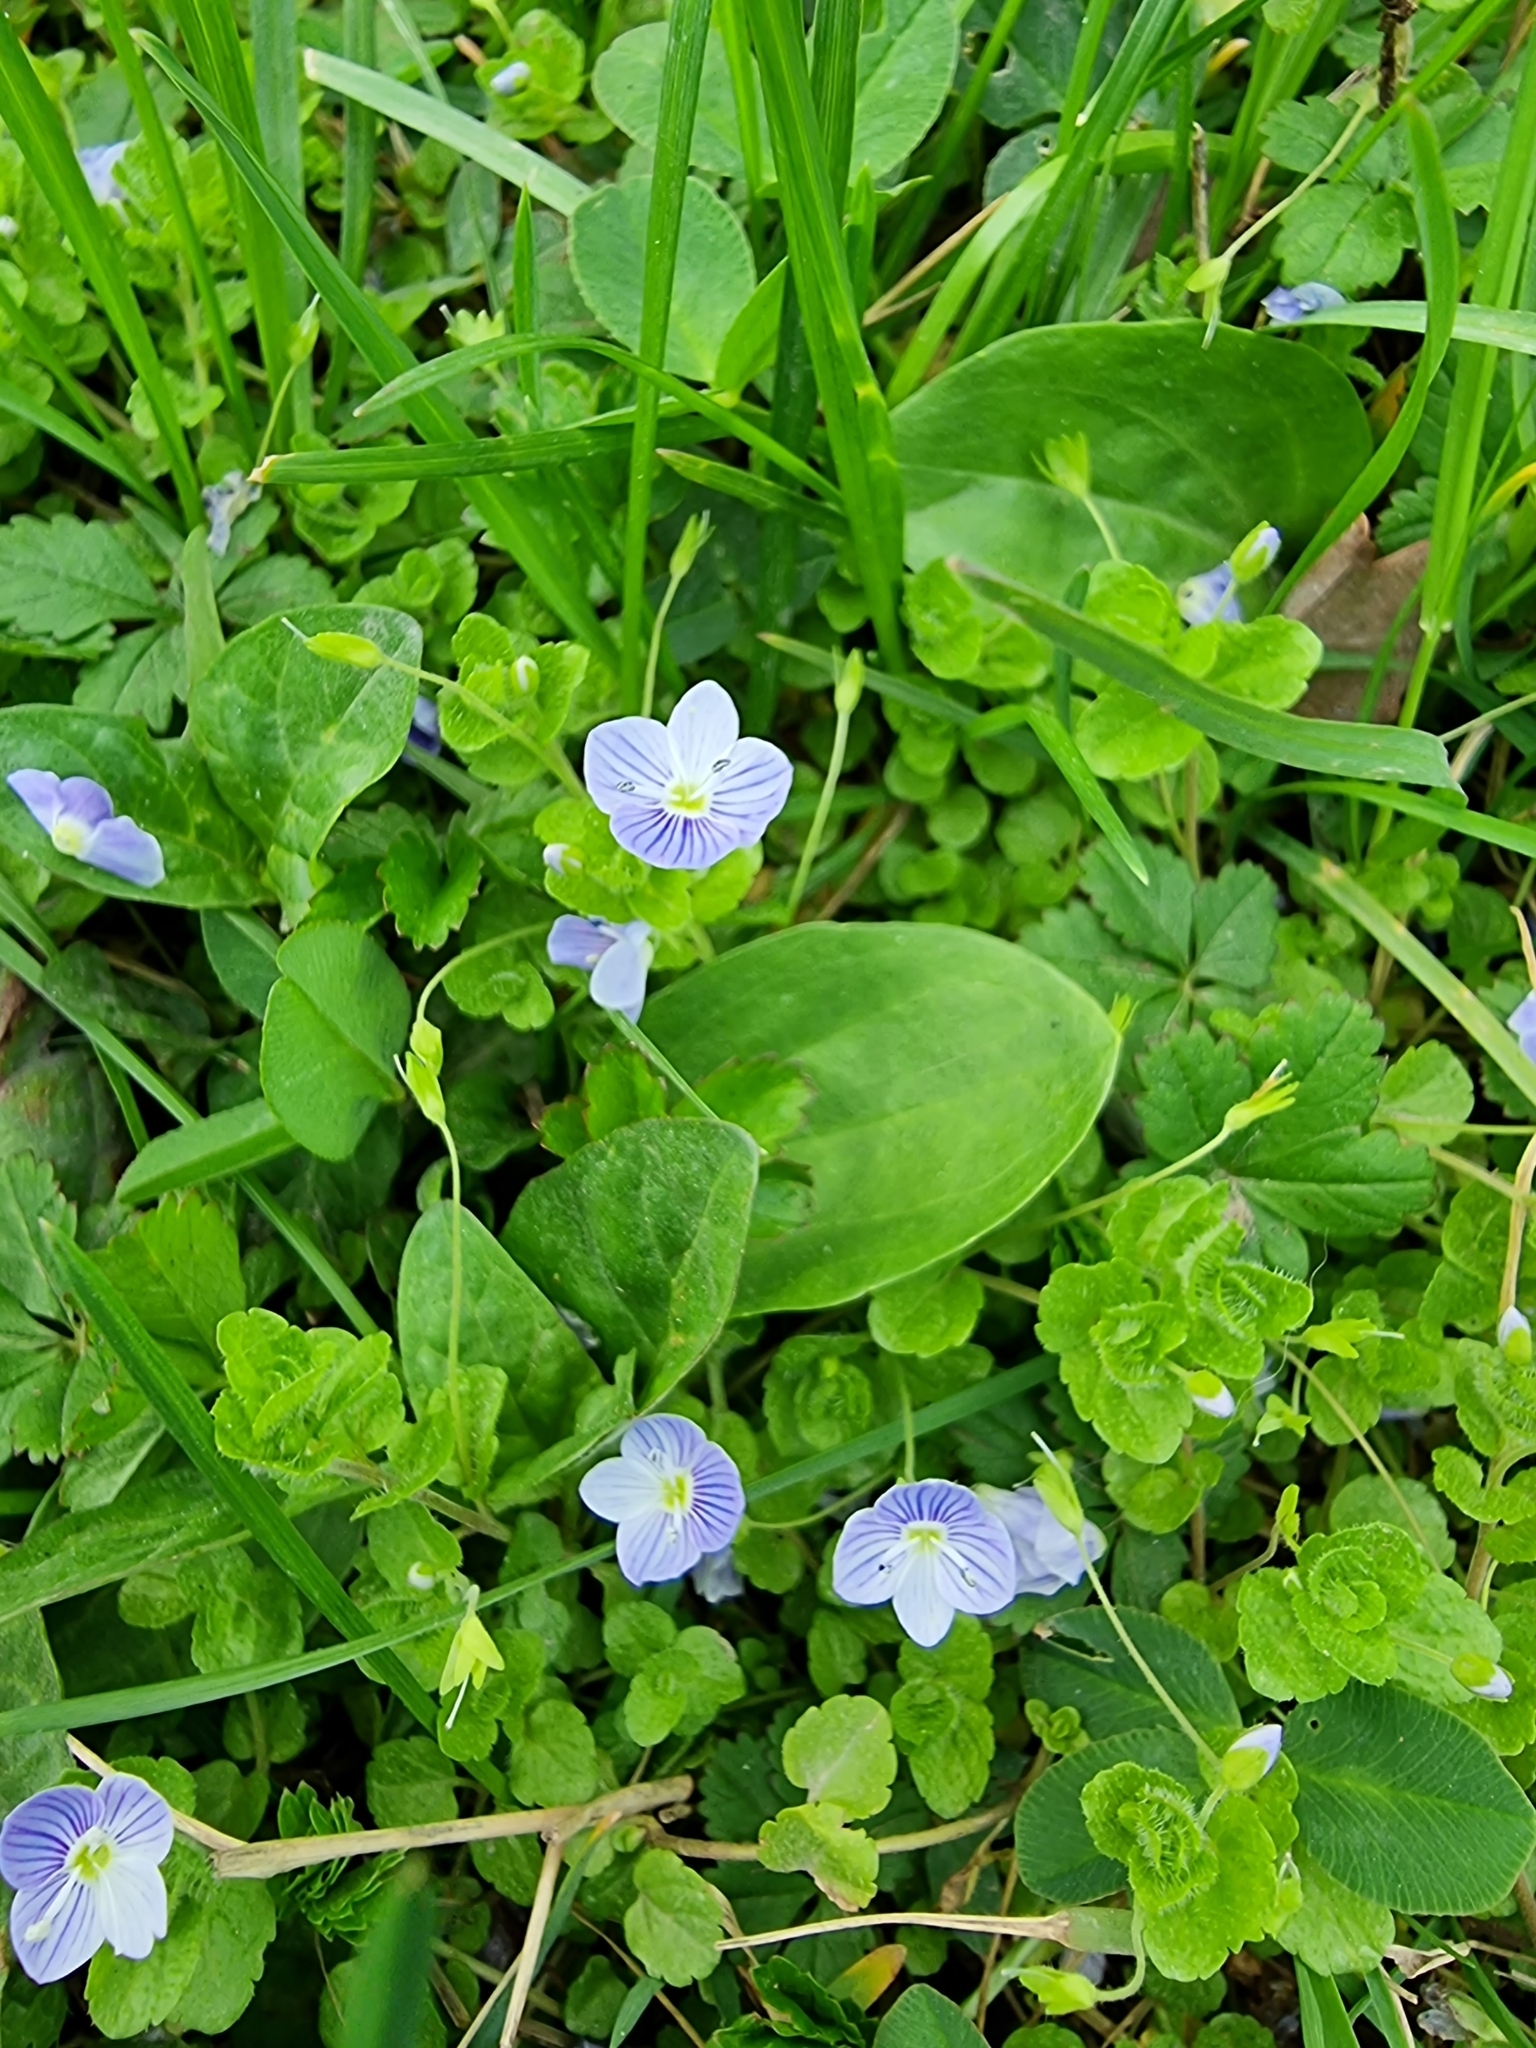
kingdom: Plantae
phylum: Tracheophyta
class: Magnoliopsida
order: Lamiales
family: Plantaginaceae
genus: Veronica
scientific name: Veronica filiformis
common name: Slender speedwell
